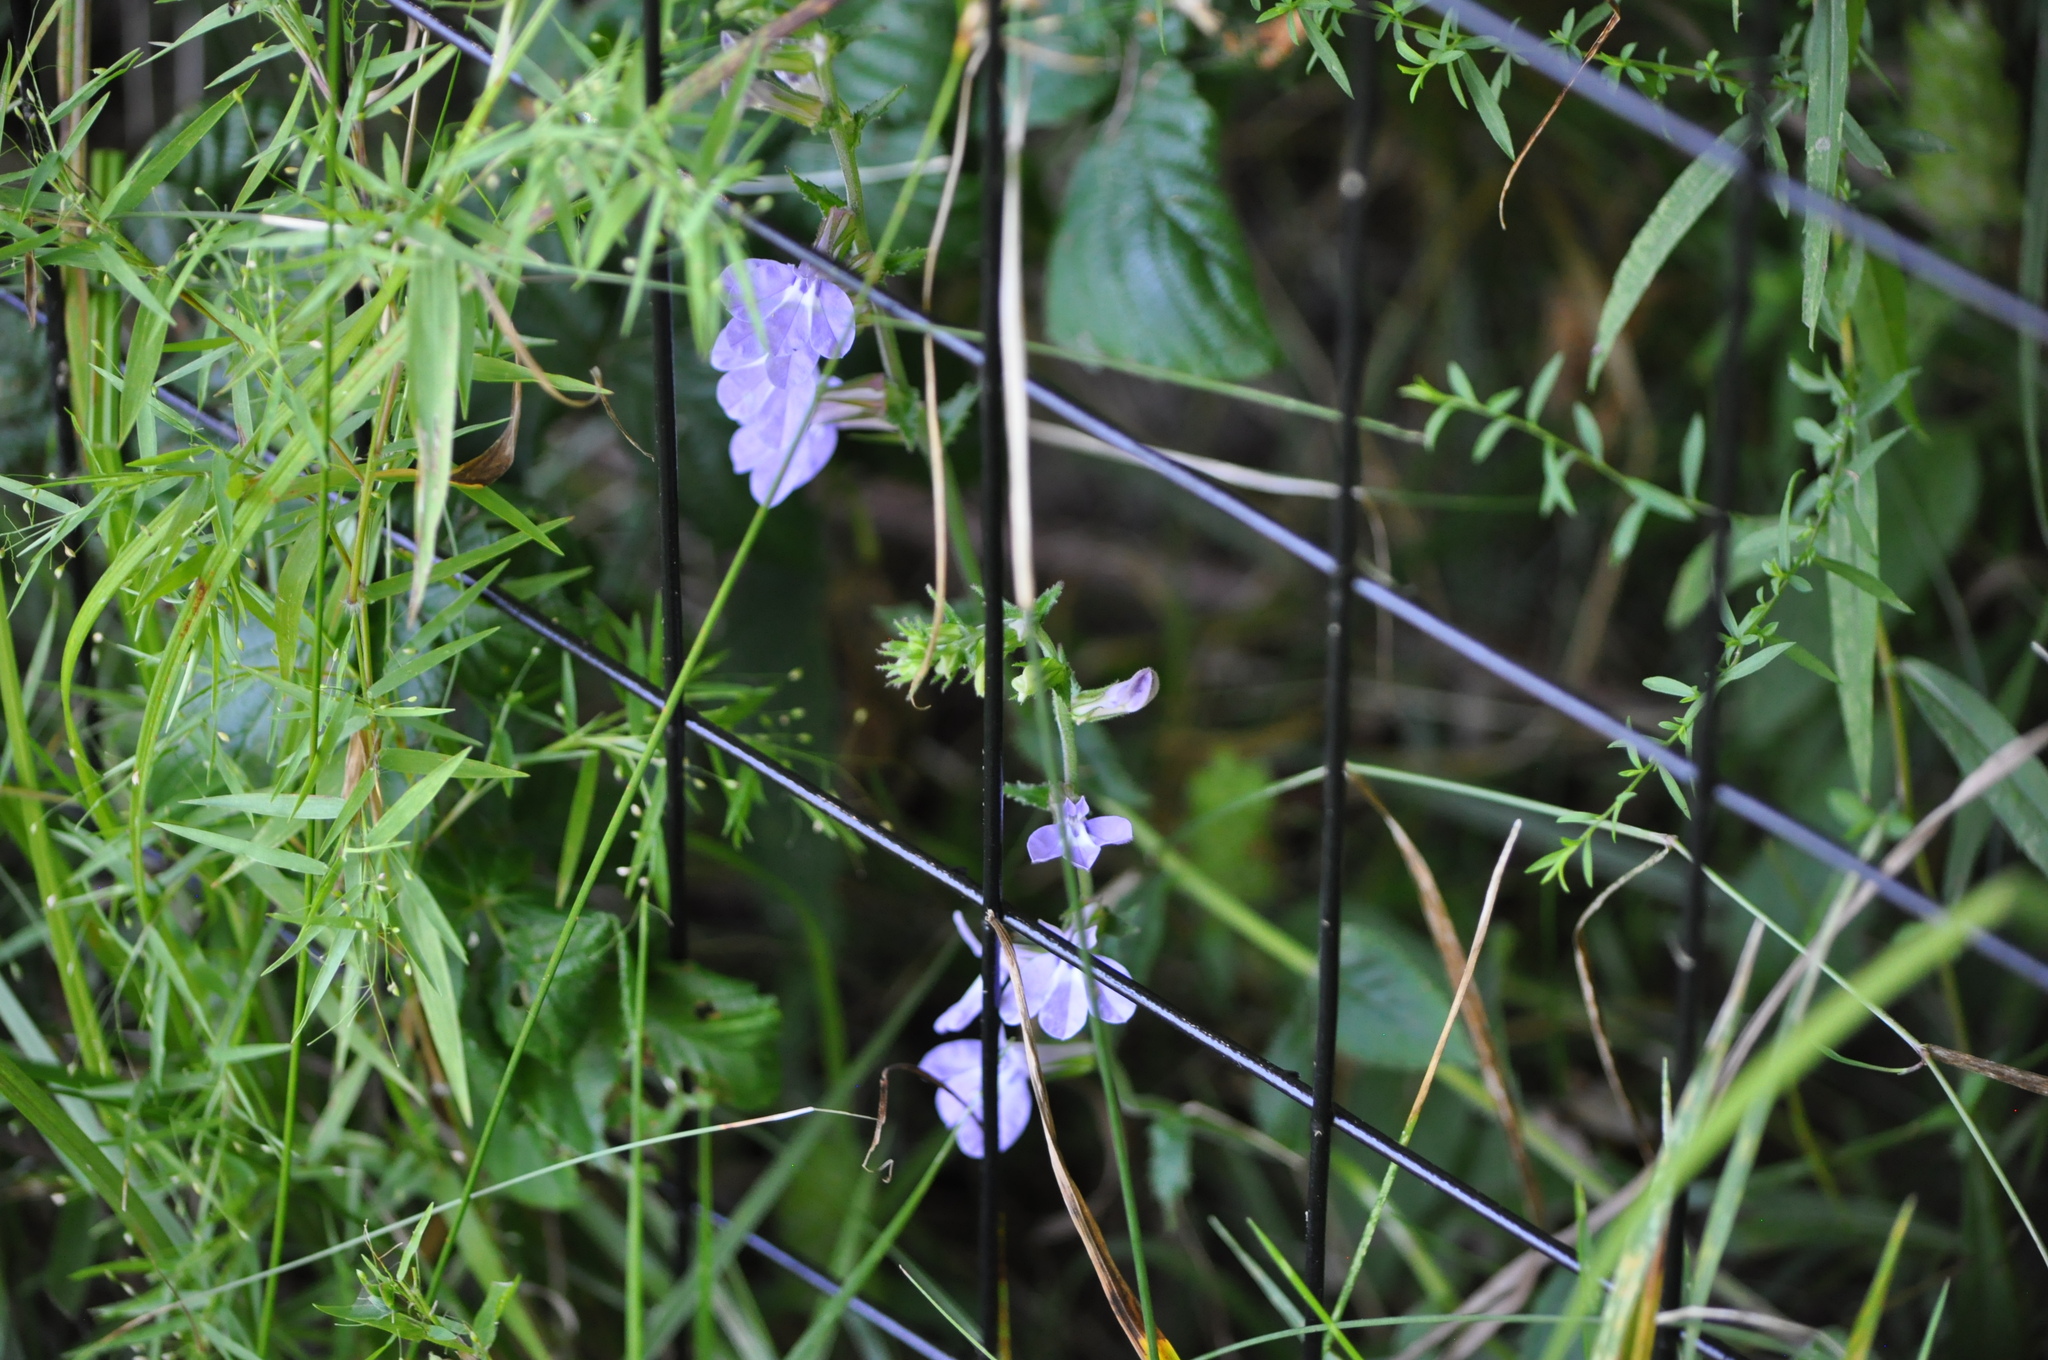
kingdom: Plantae
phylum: Tracheophyta
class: Magnoliopsida
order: Asterales
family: Campanulaceae
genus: Lobelia
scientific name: Lobelia kalmii
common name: Kalm's lobelia
